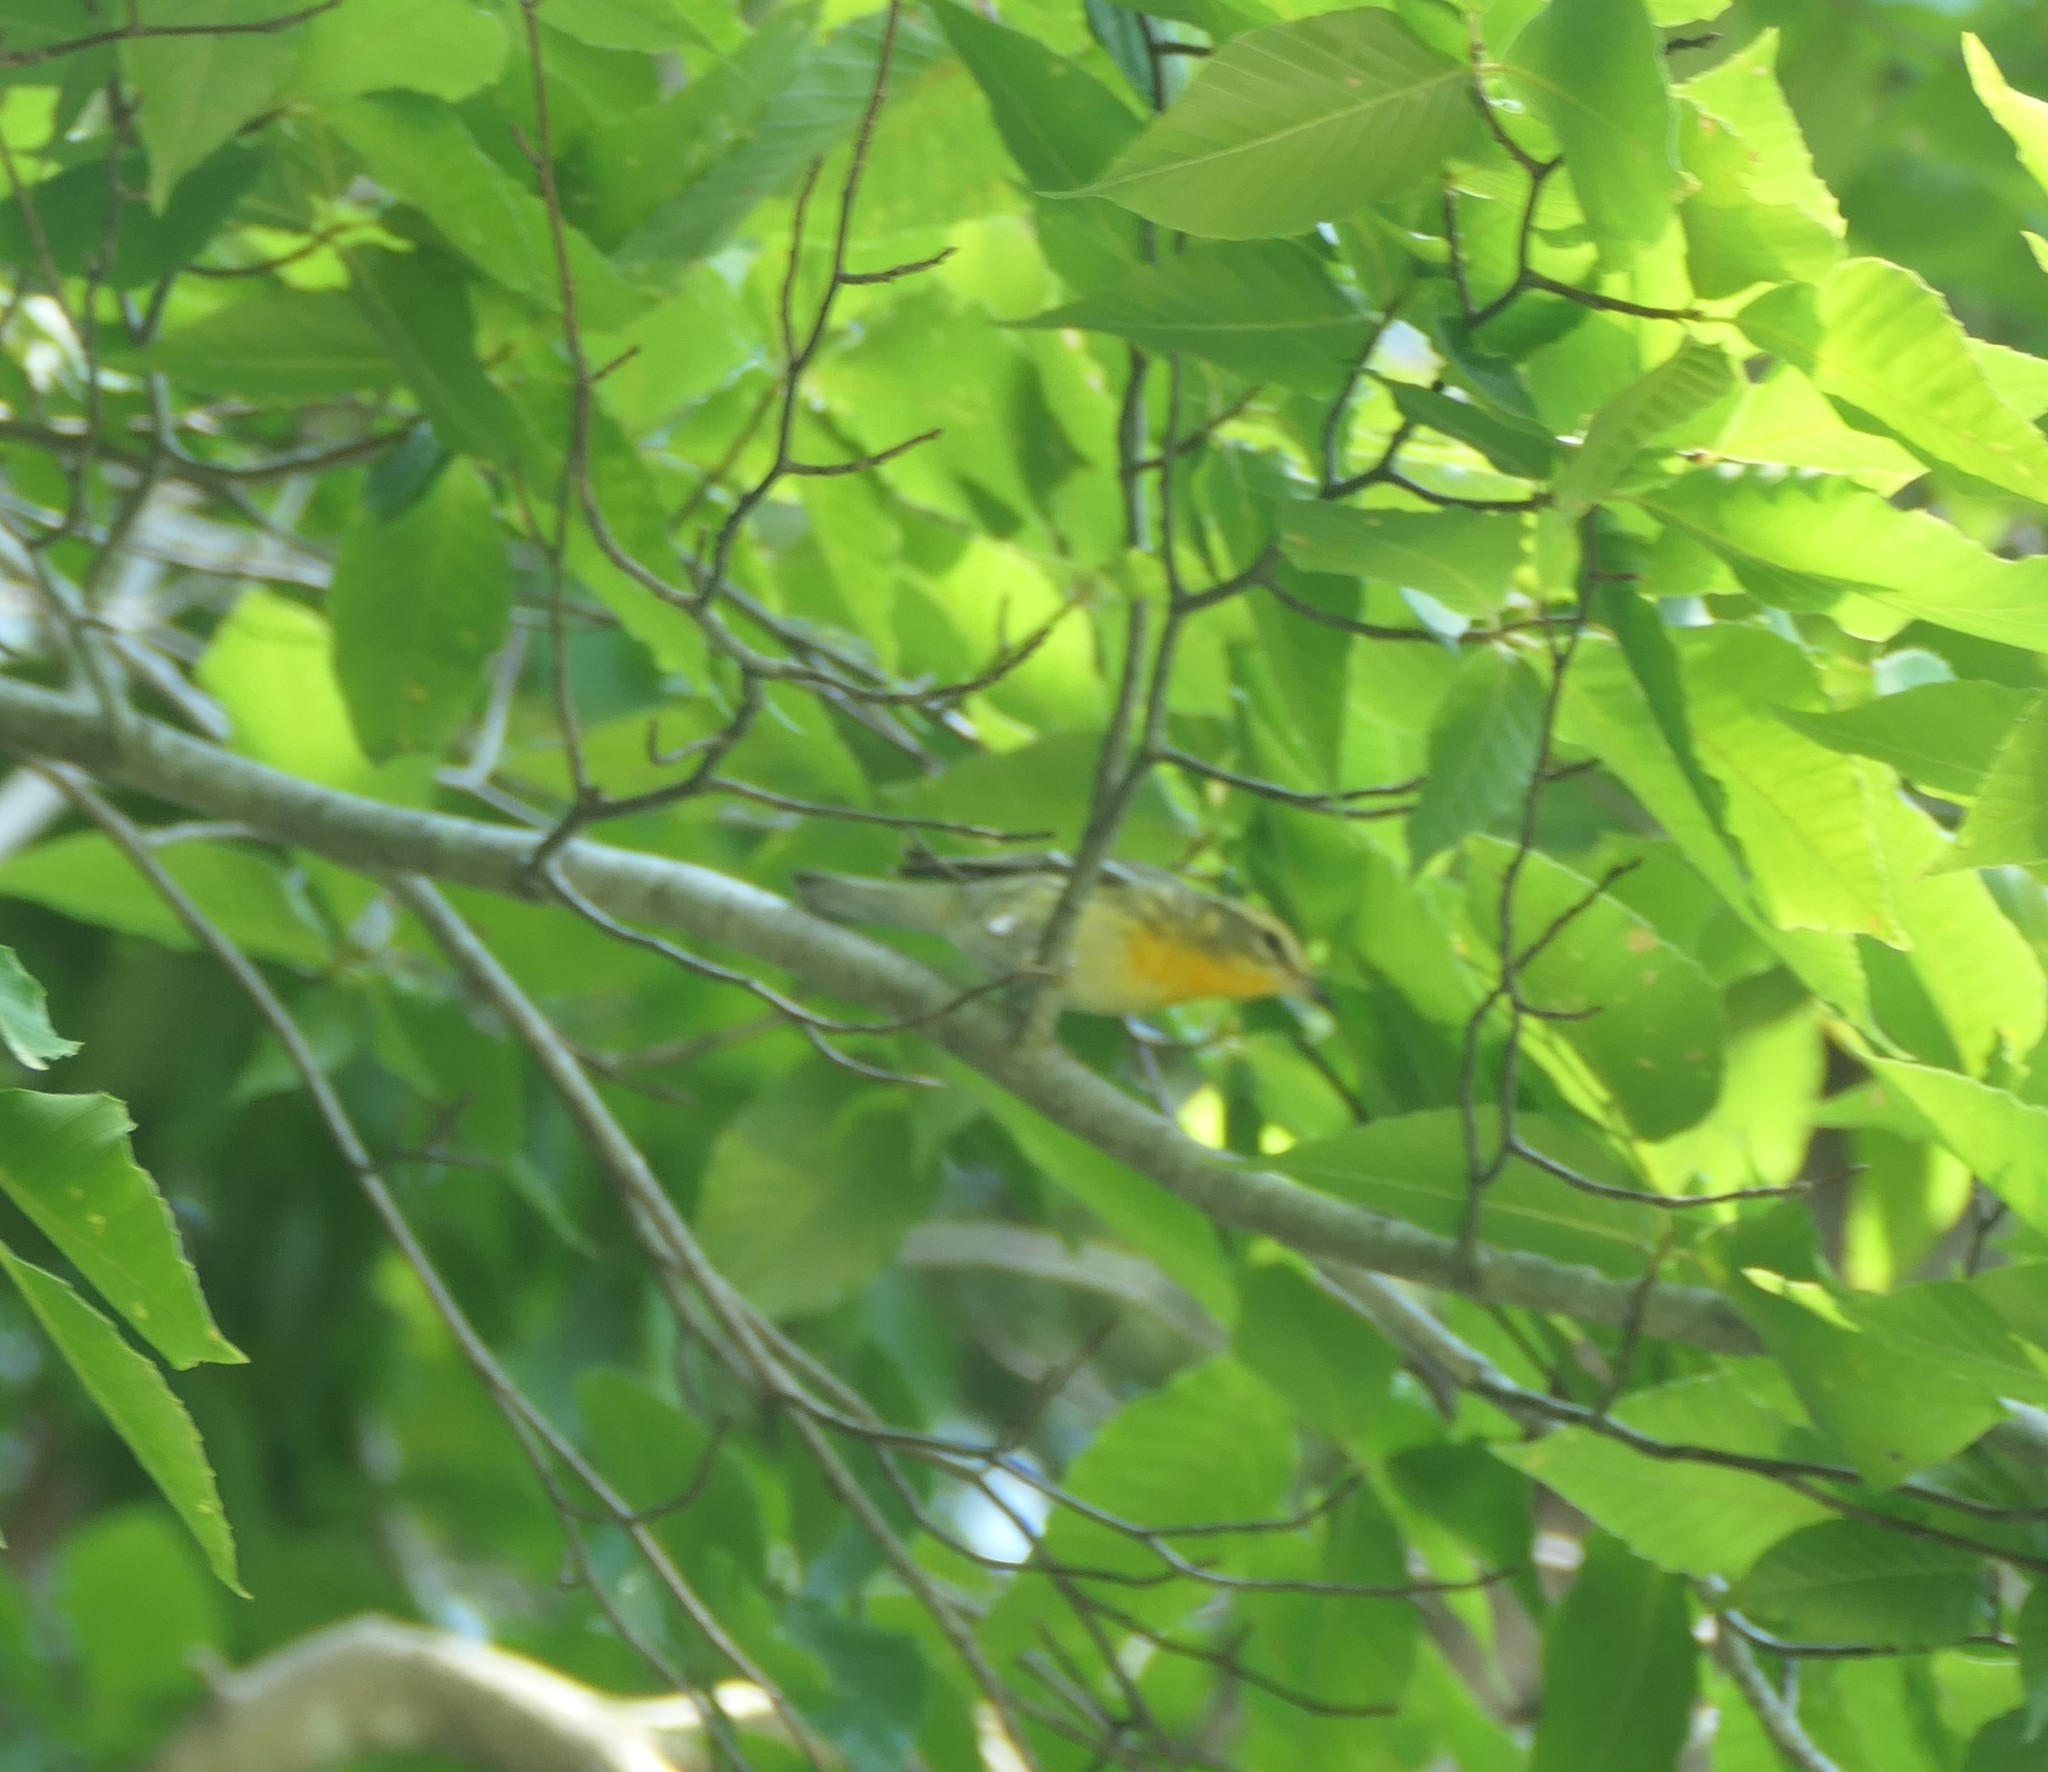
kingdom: Animalia
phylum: Chordata
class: Aves
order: Passeriformes
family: Parulidae
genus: Setophaga
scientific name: Setophaga fusca
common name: Blackburnian warbler
